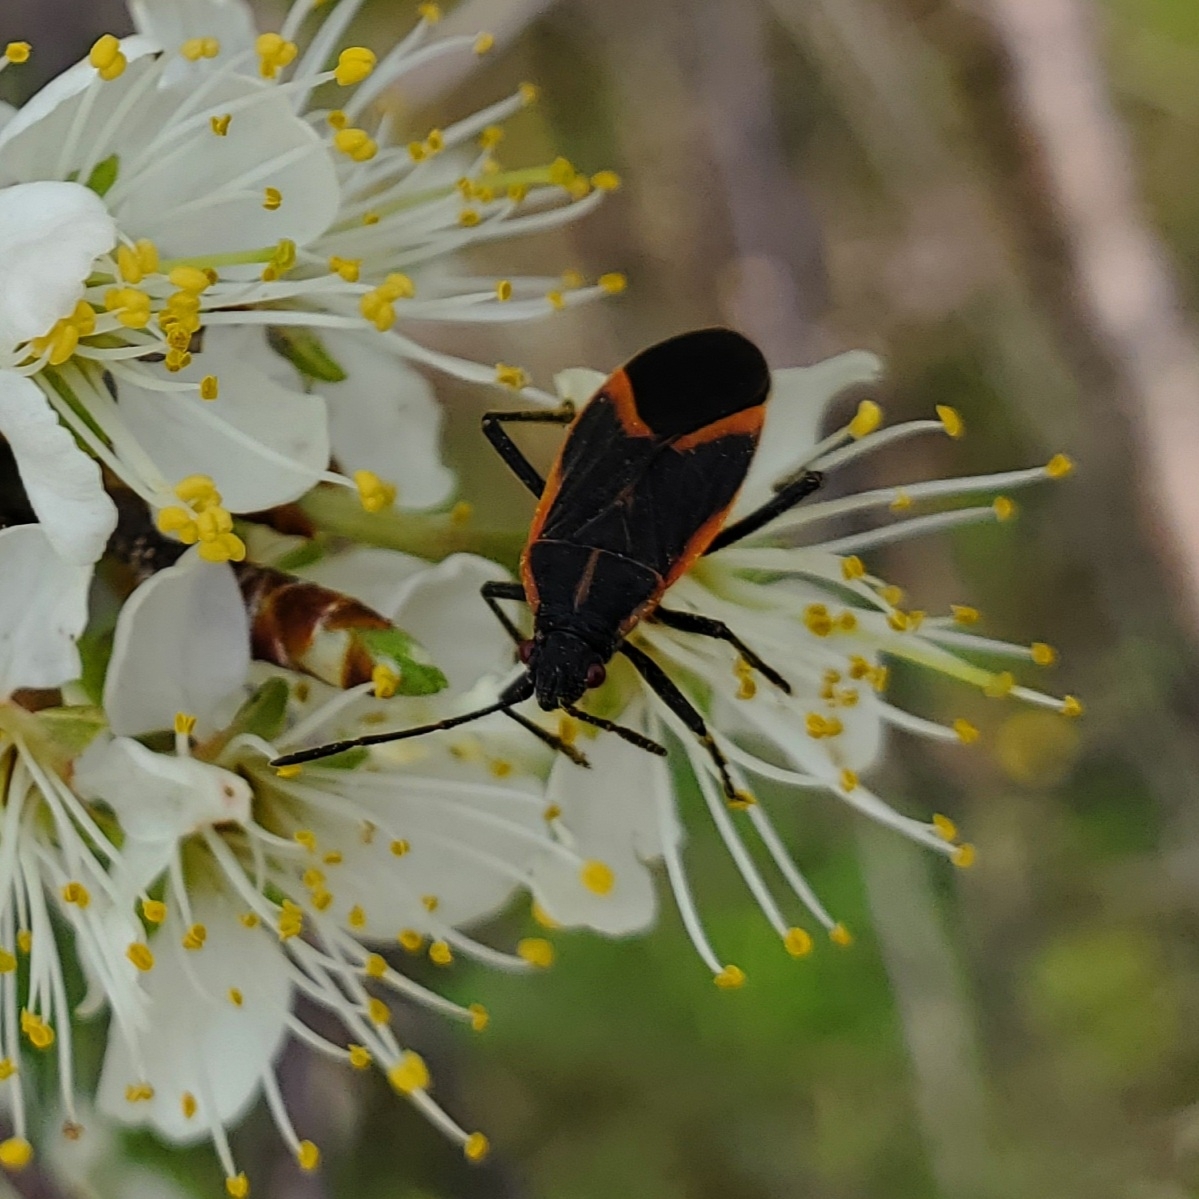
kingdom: Animalia
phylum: Arthropoda
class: Insecta
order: Hemiptera
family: Rhopalidae
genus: Boisea
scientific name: Boisea trivittata
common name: Boxelder bug
